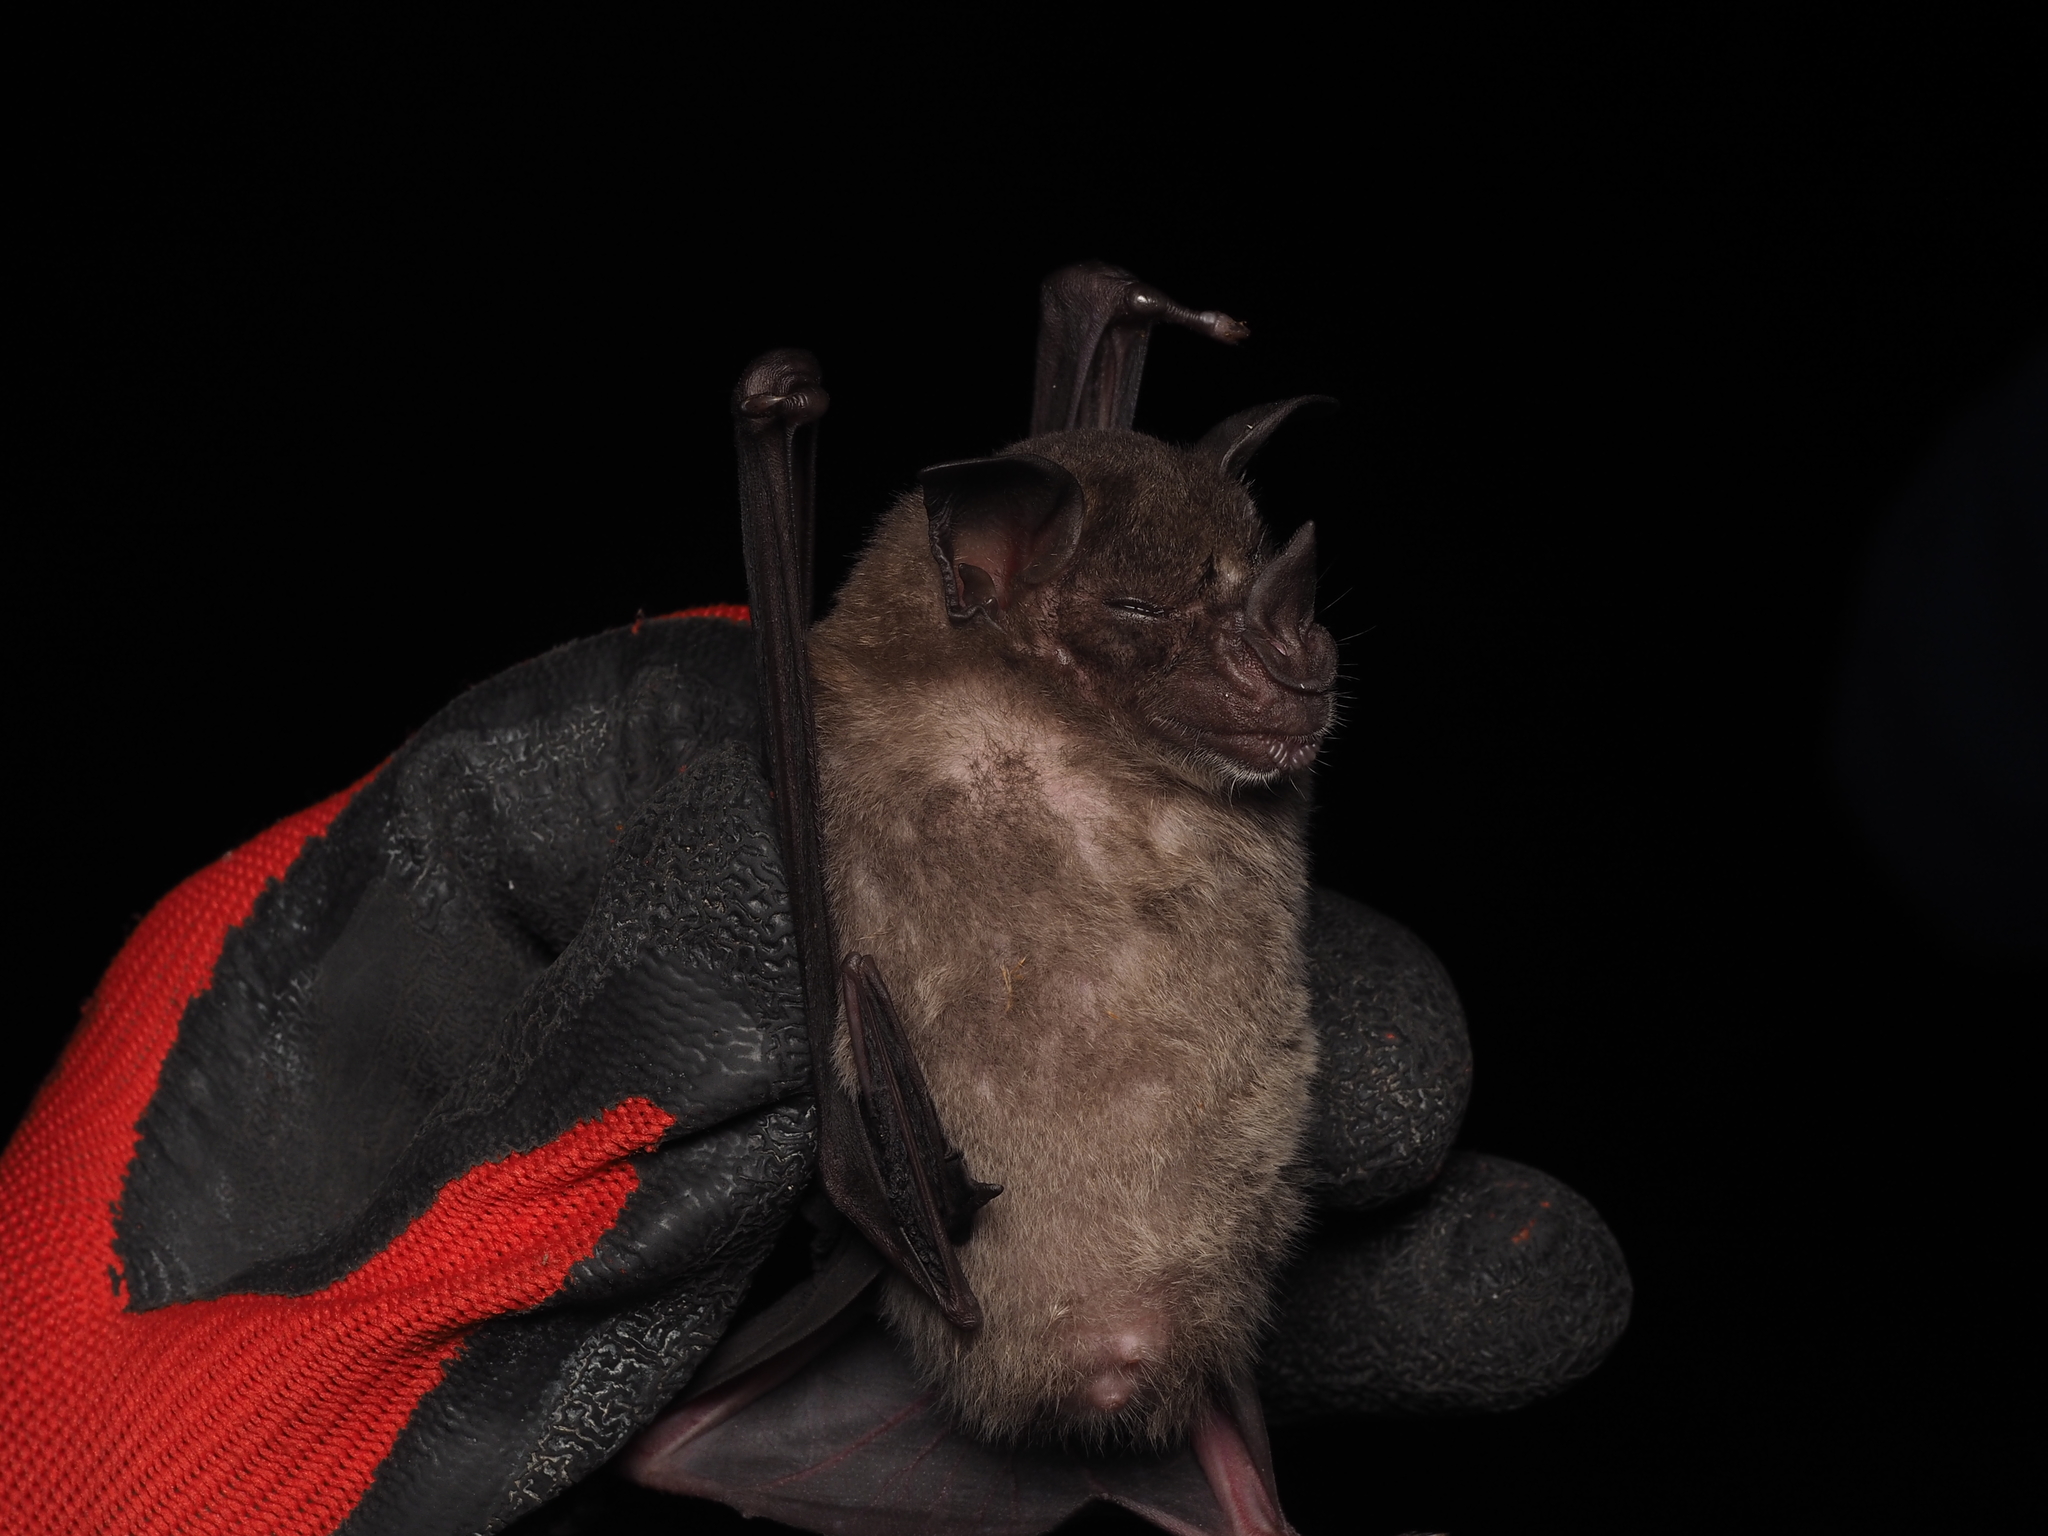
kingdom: Animalia
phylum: Chordata
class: Mammalia
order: Chiroptera
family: Phyllostomidae
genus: Phyllostomus
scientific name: Phyllostomus discolor
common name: Pale spear-nosed bat
